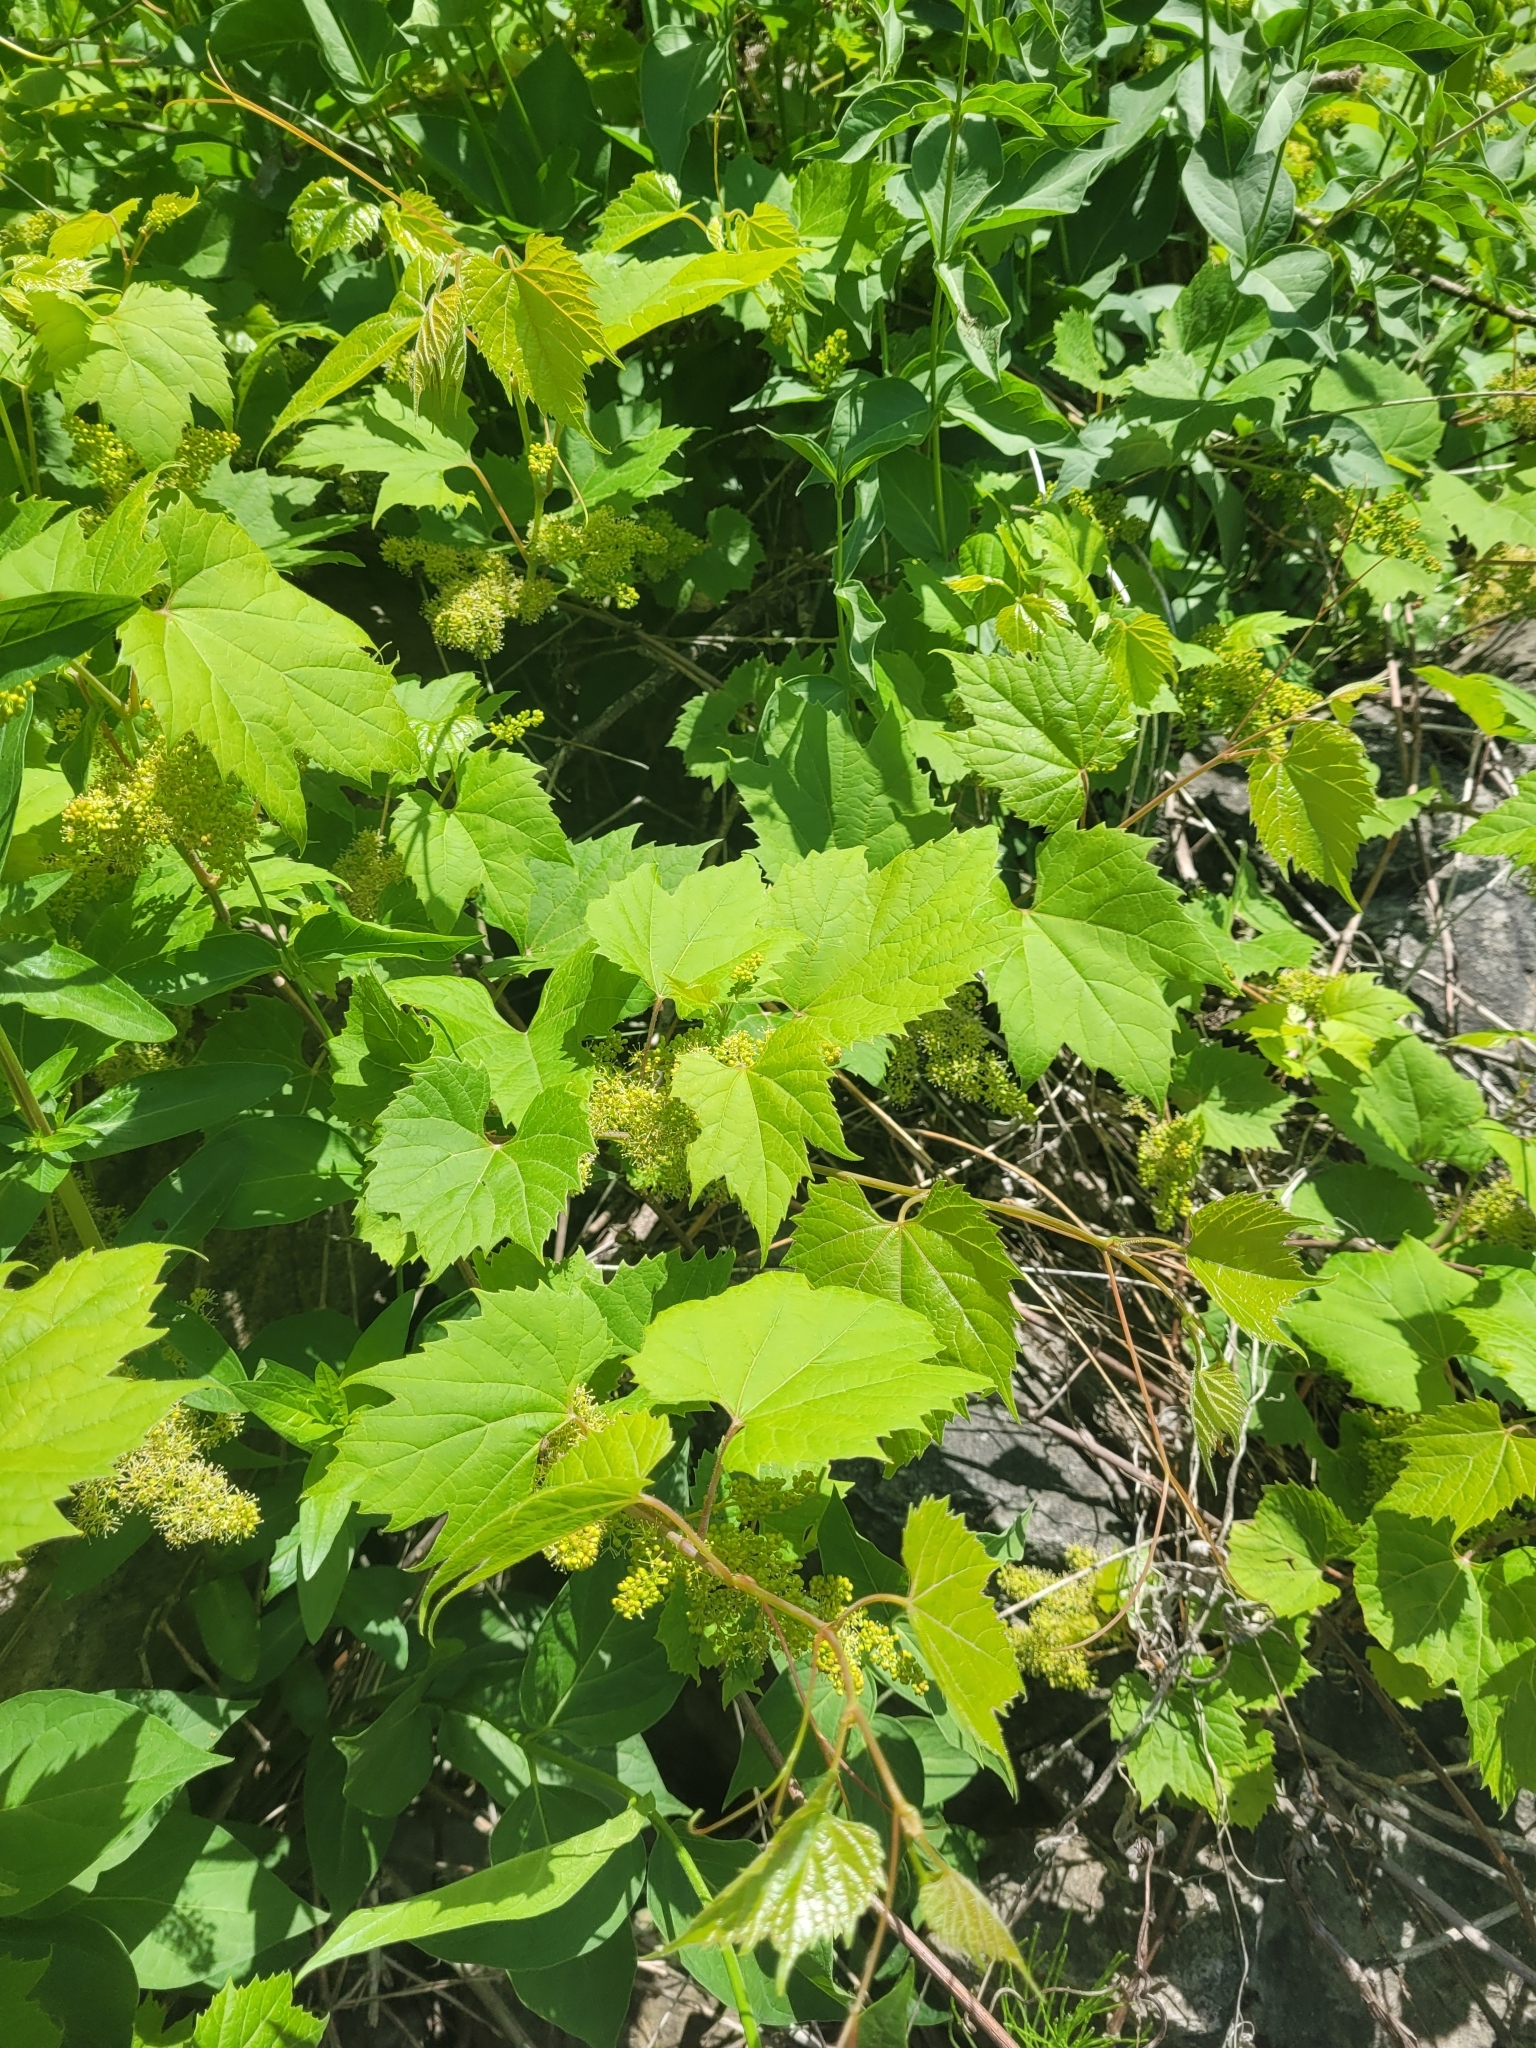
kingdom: Plantae
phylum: Tracheophyta
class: Magnoliopsida
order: Vitales
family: Vitaceae
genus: Vitis
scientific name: Vitis riparia
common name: Frost grape
